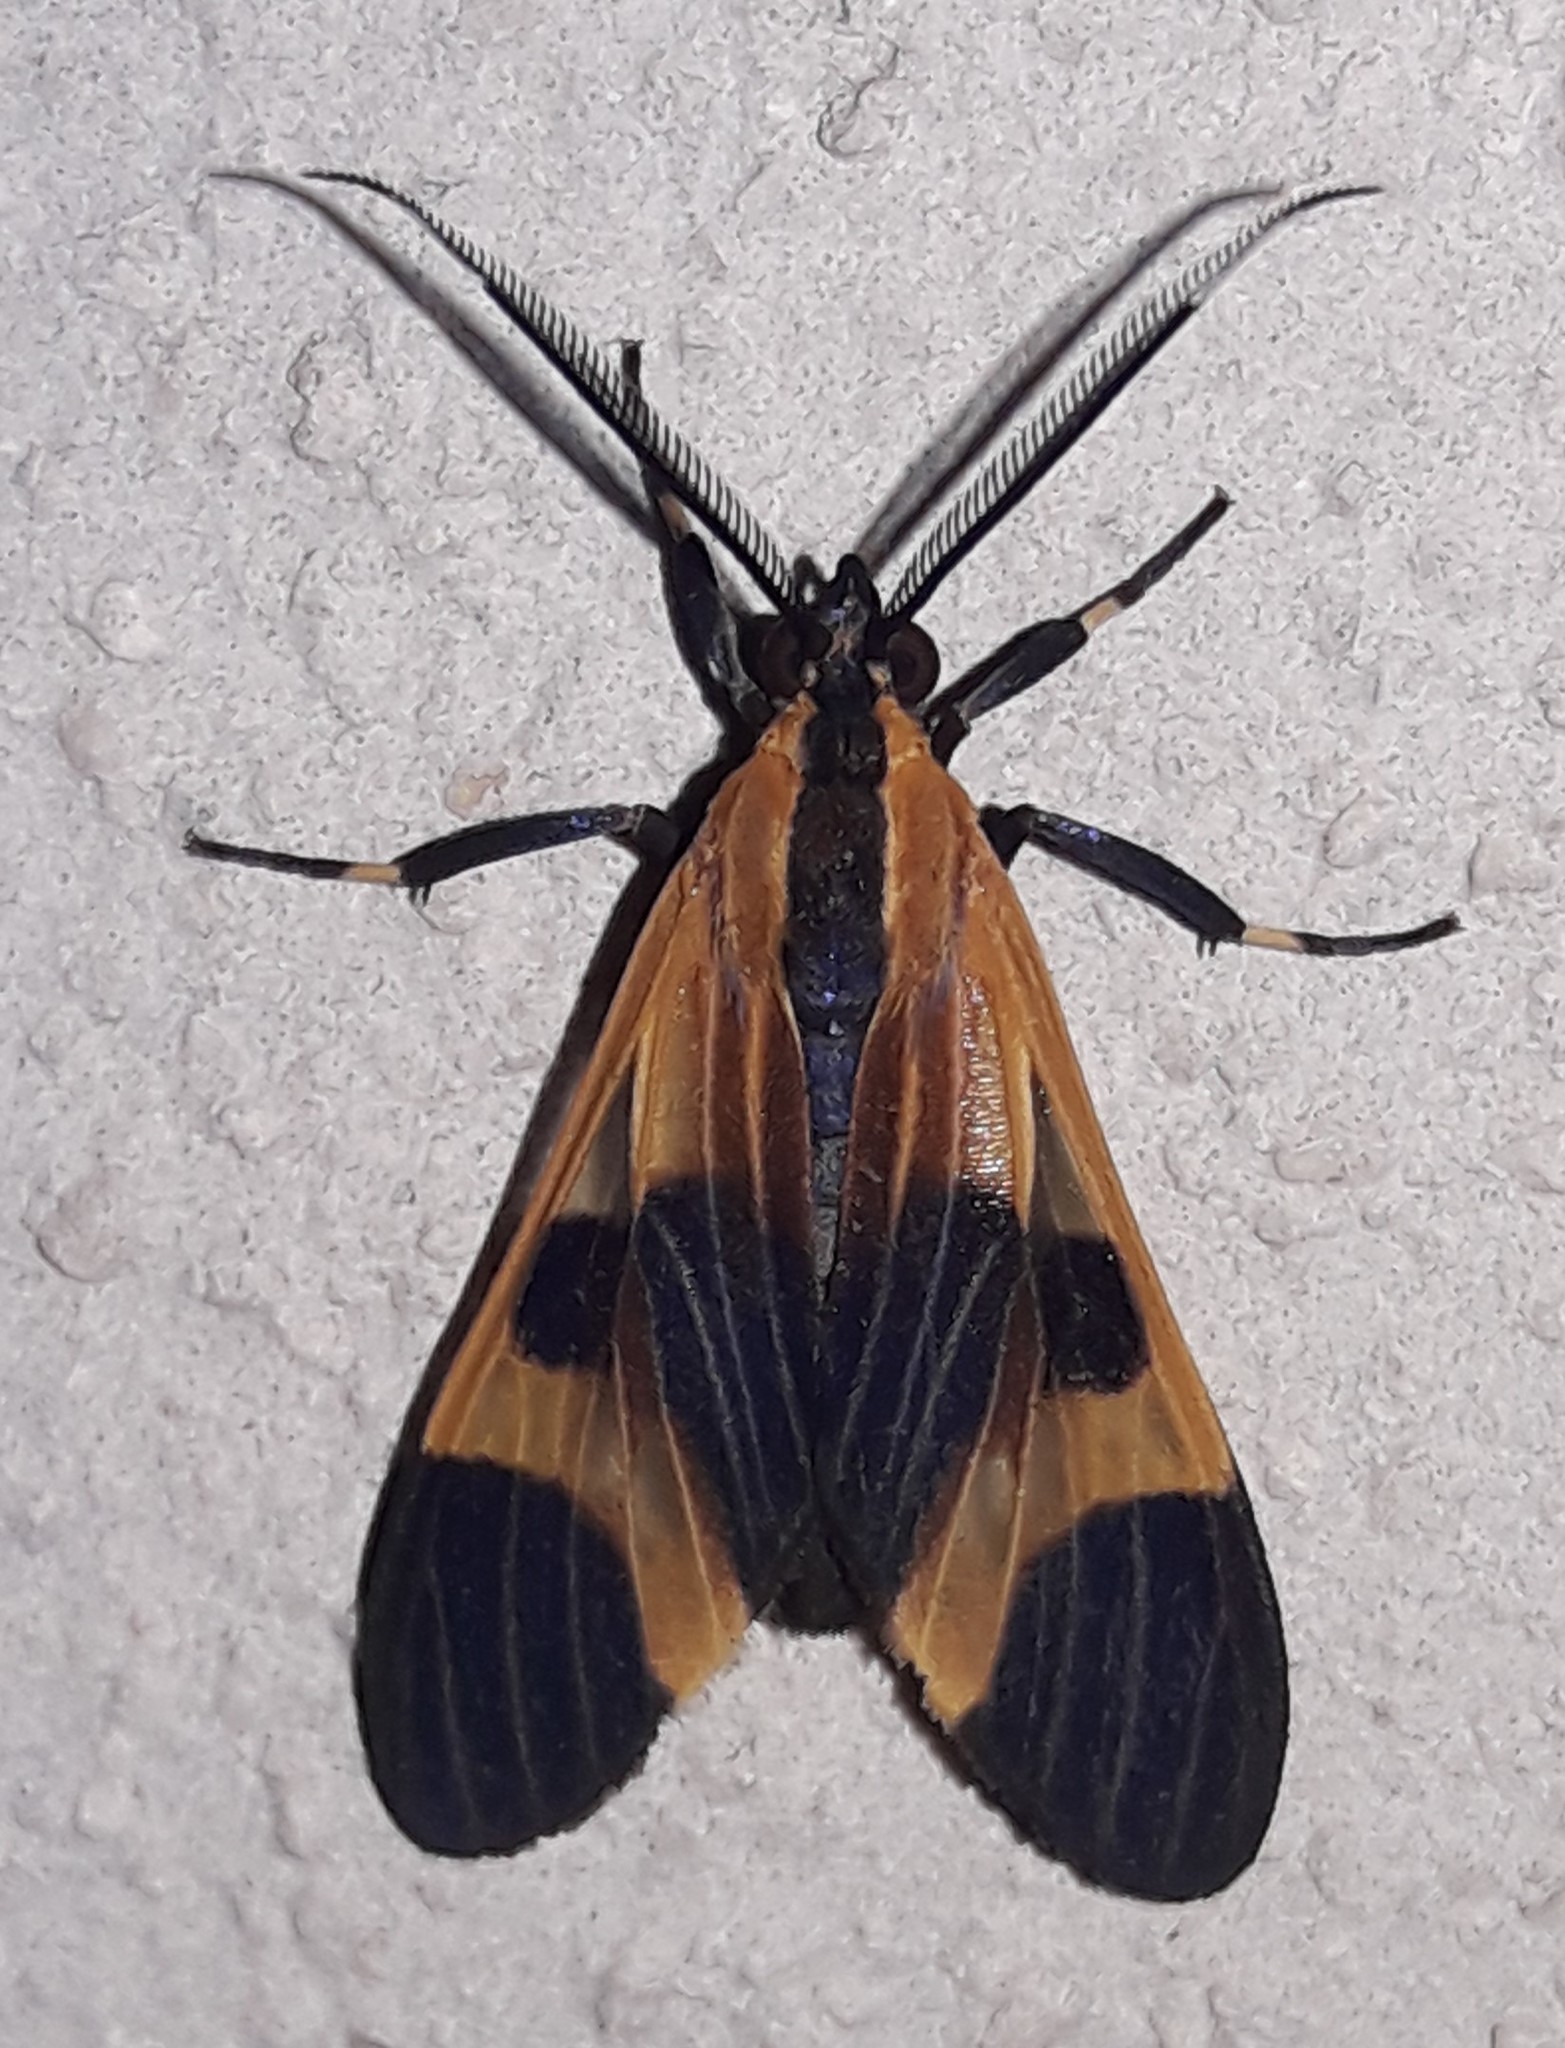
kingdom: Animalia
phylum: Arthropoda
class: Insecta
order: Lepidoptera
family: Erebidae
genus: Dycladia
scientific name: Dycladia correbioides
